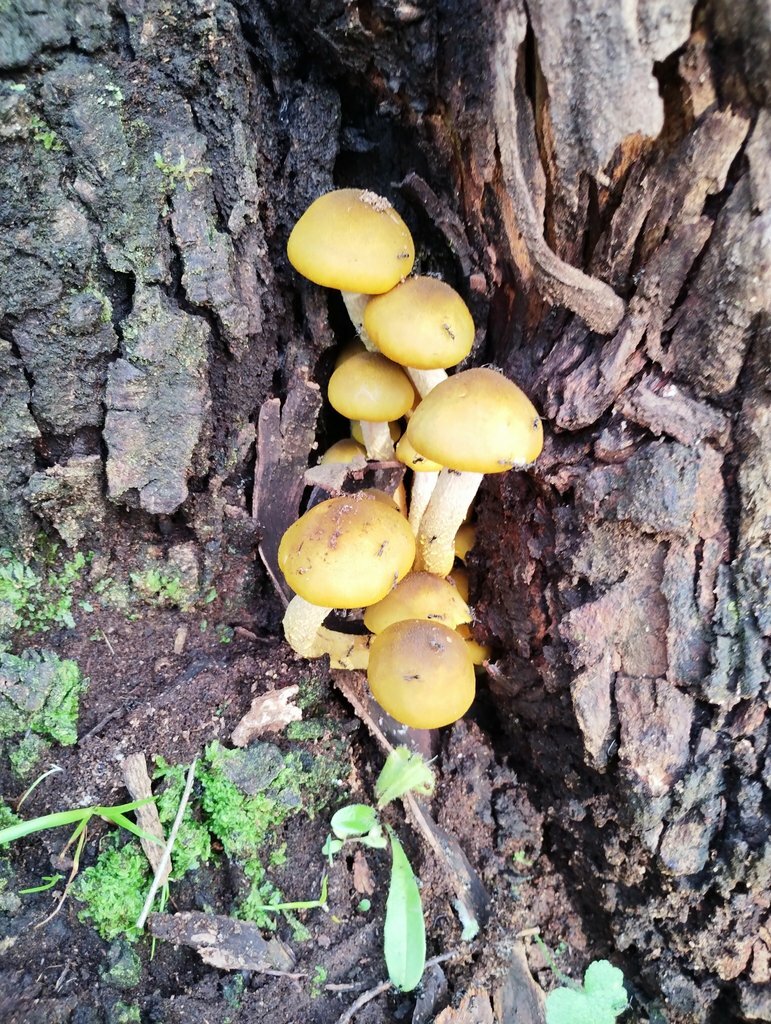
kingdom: Fungi
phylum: Basidiomycota
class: Agaricomycetes
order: Agaricales
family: Physalacriaceae
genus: Armillaria
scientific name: Armillaria luteobubalina
